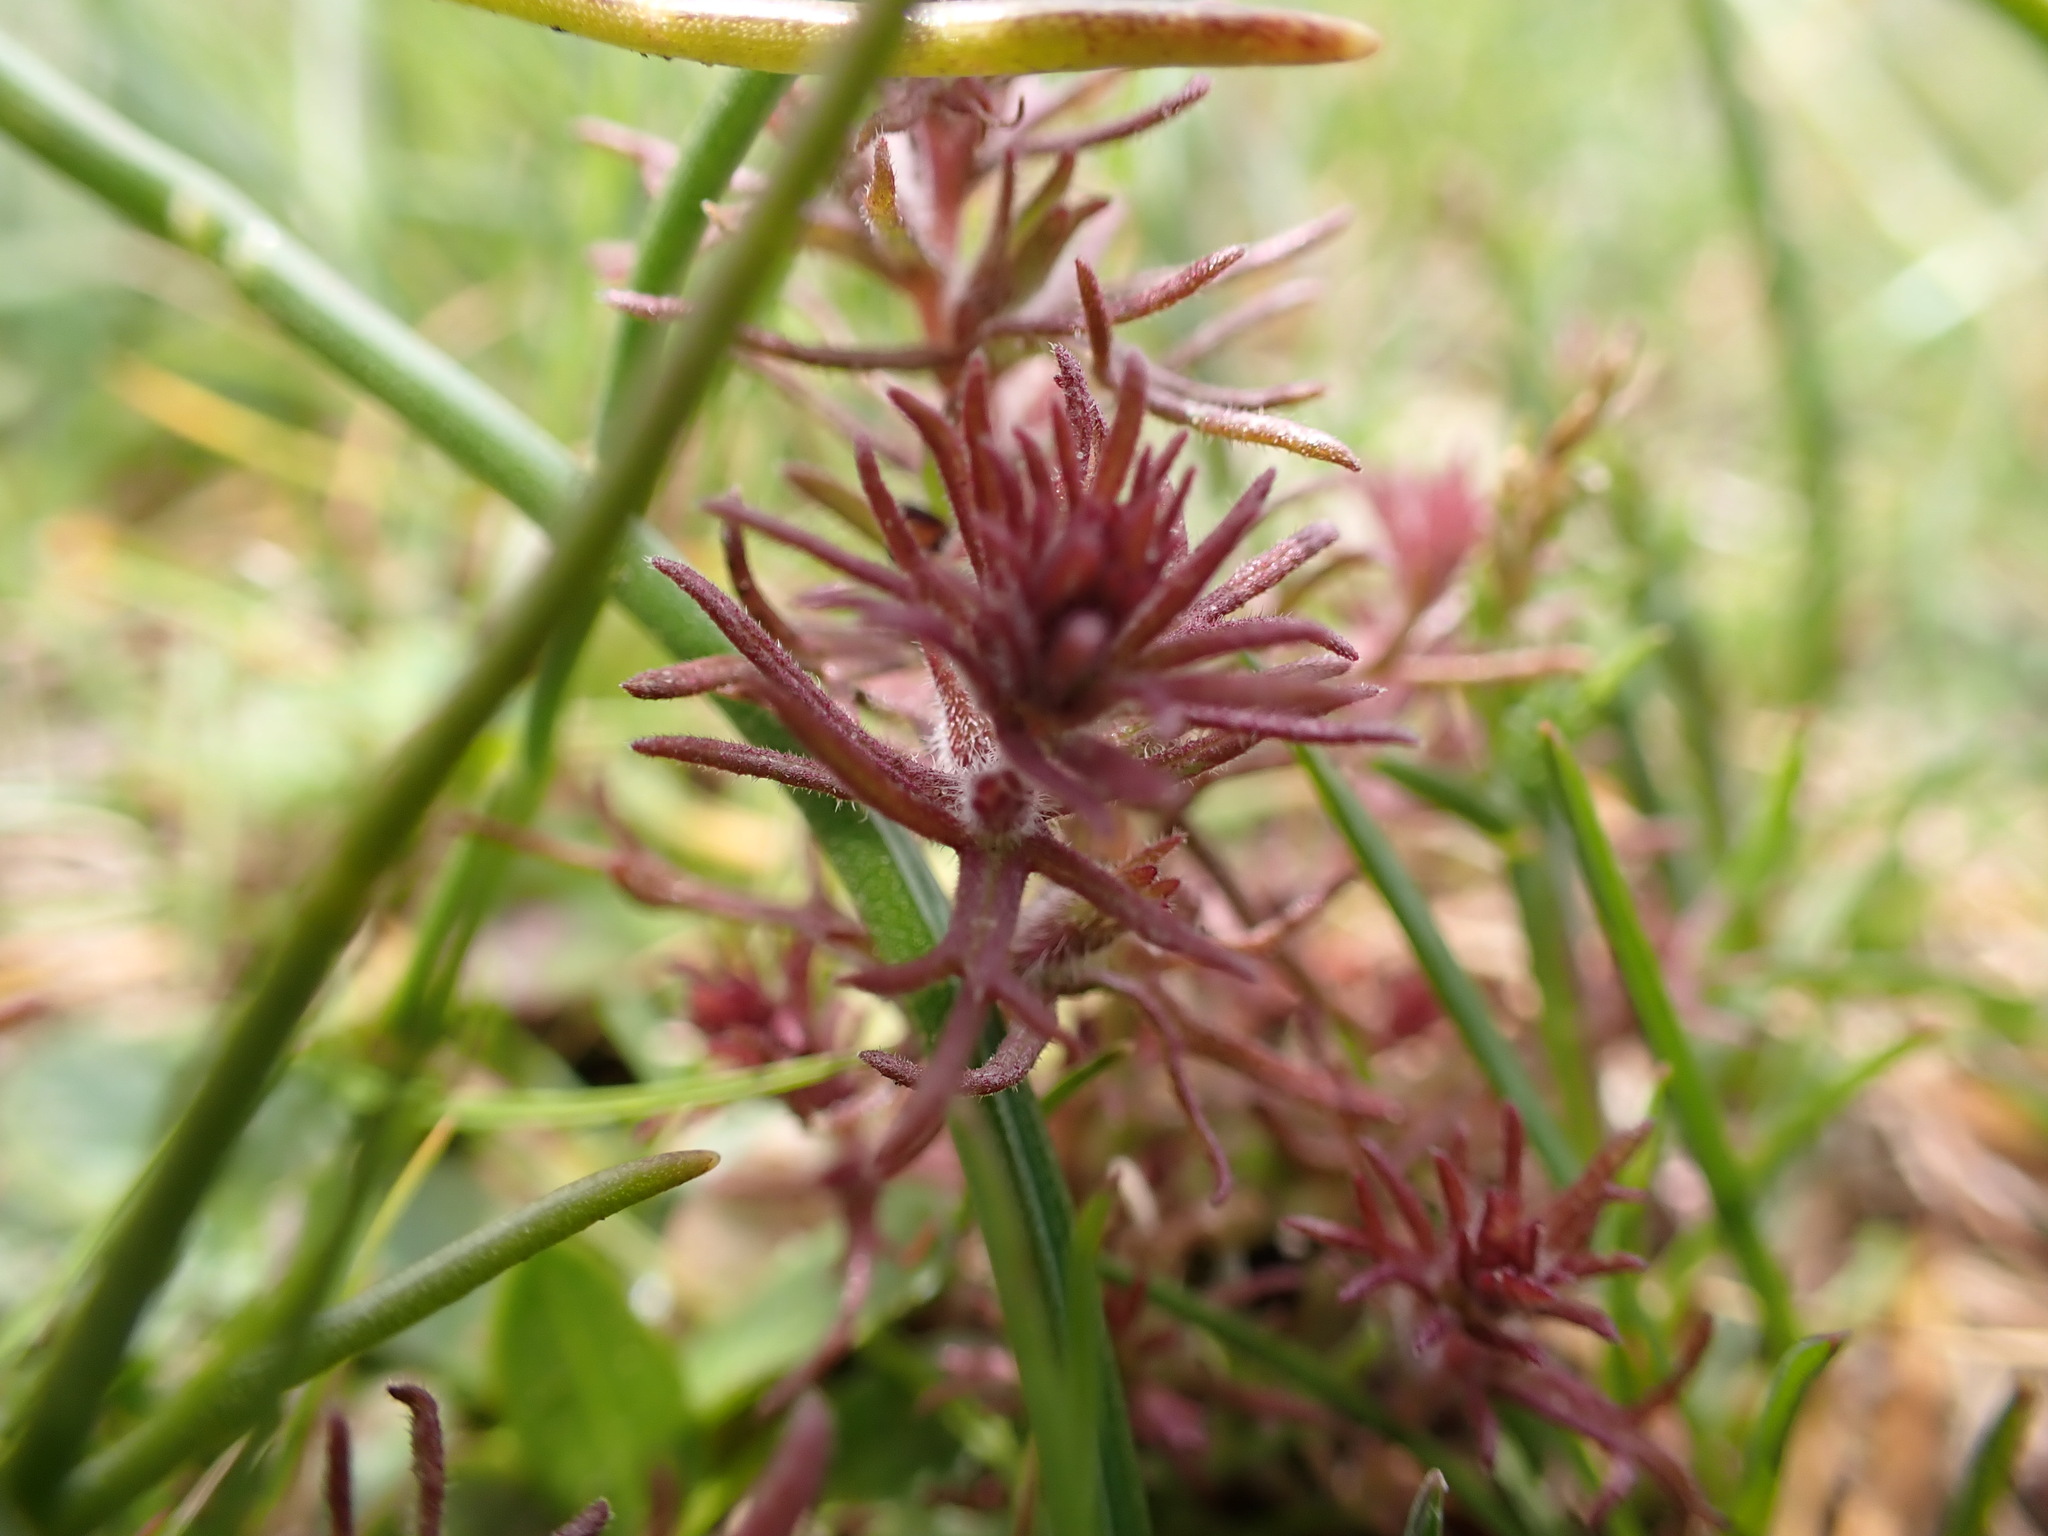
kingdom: Plantae
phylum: Tracheophyta
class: Magnoliopsida
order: Lamiales
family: Orobanchaceae
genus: Triphysaria
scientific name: Triphysaria pusilla
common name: Dwarf false owl-clover
